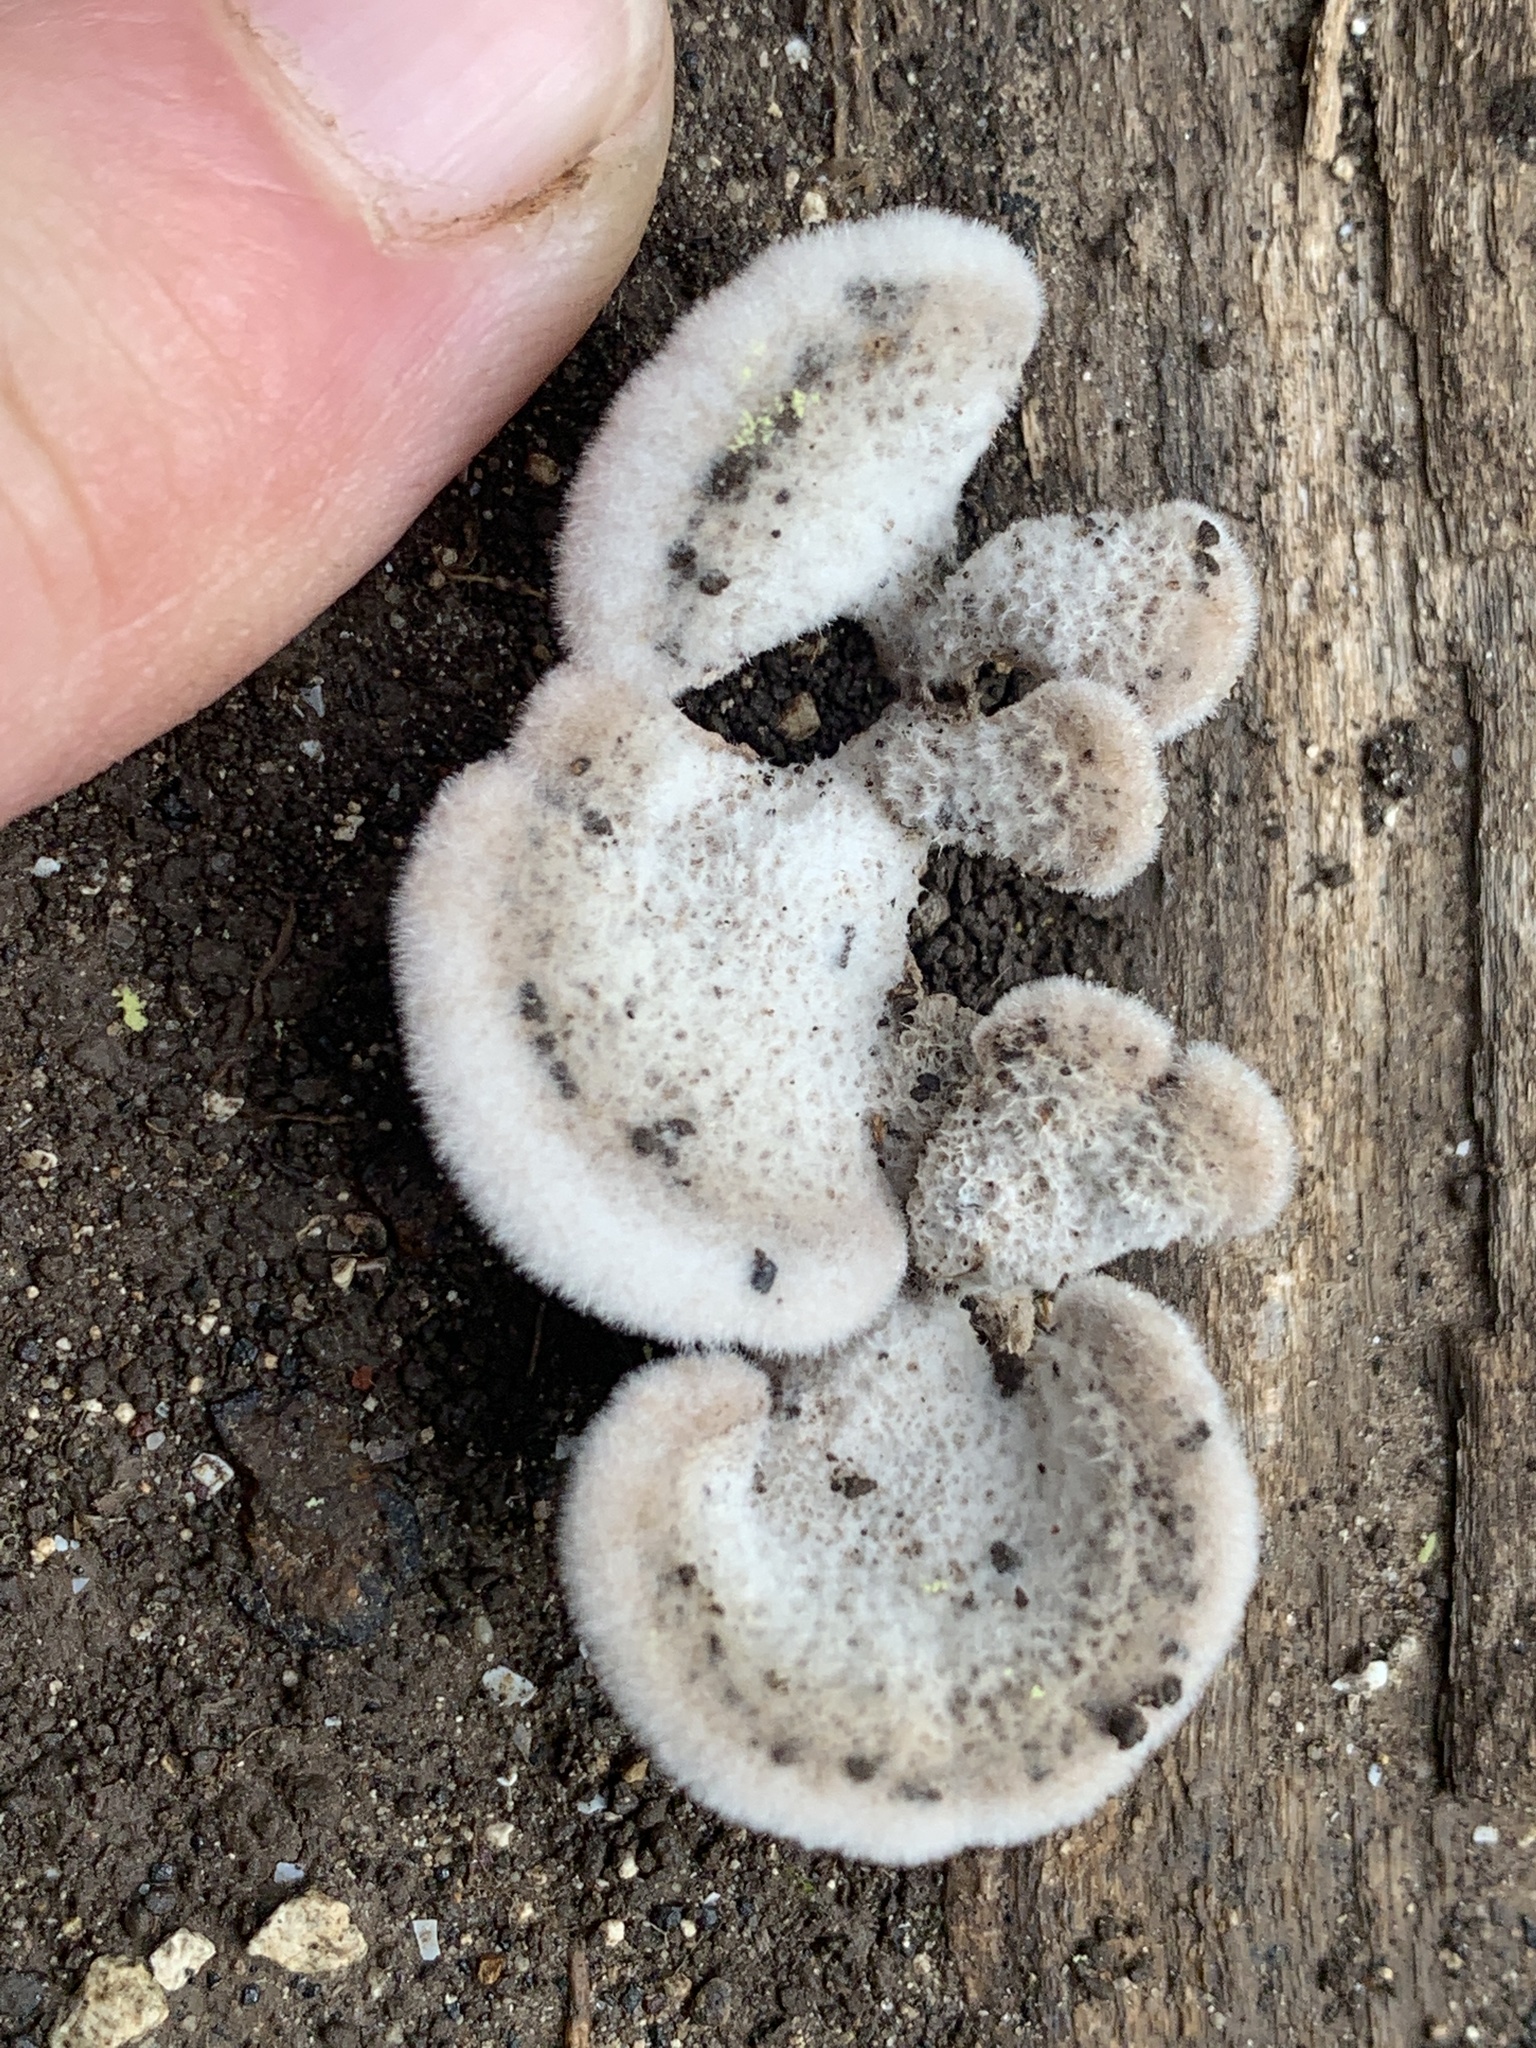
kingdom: Fungi
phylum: Basidiomycota
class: Agaricomycetes
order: Agaricales
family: Schizophyllaceae
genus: Schizophyllum
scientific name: Schizophyllum commune
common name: Common porecrust
